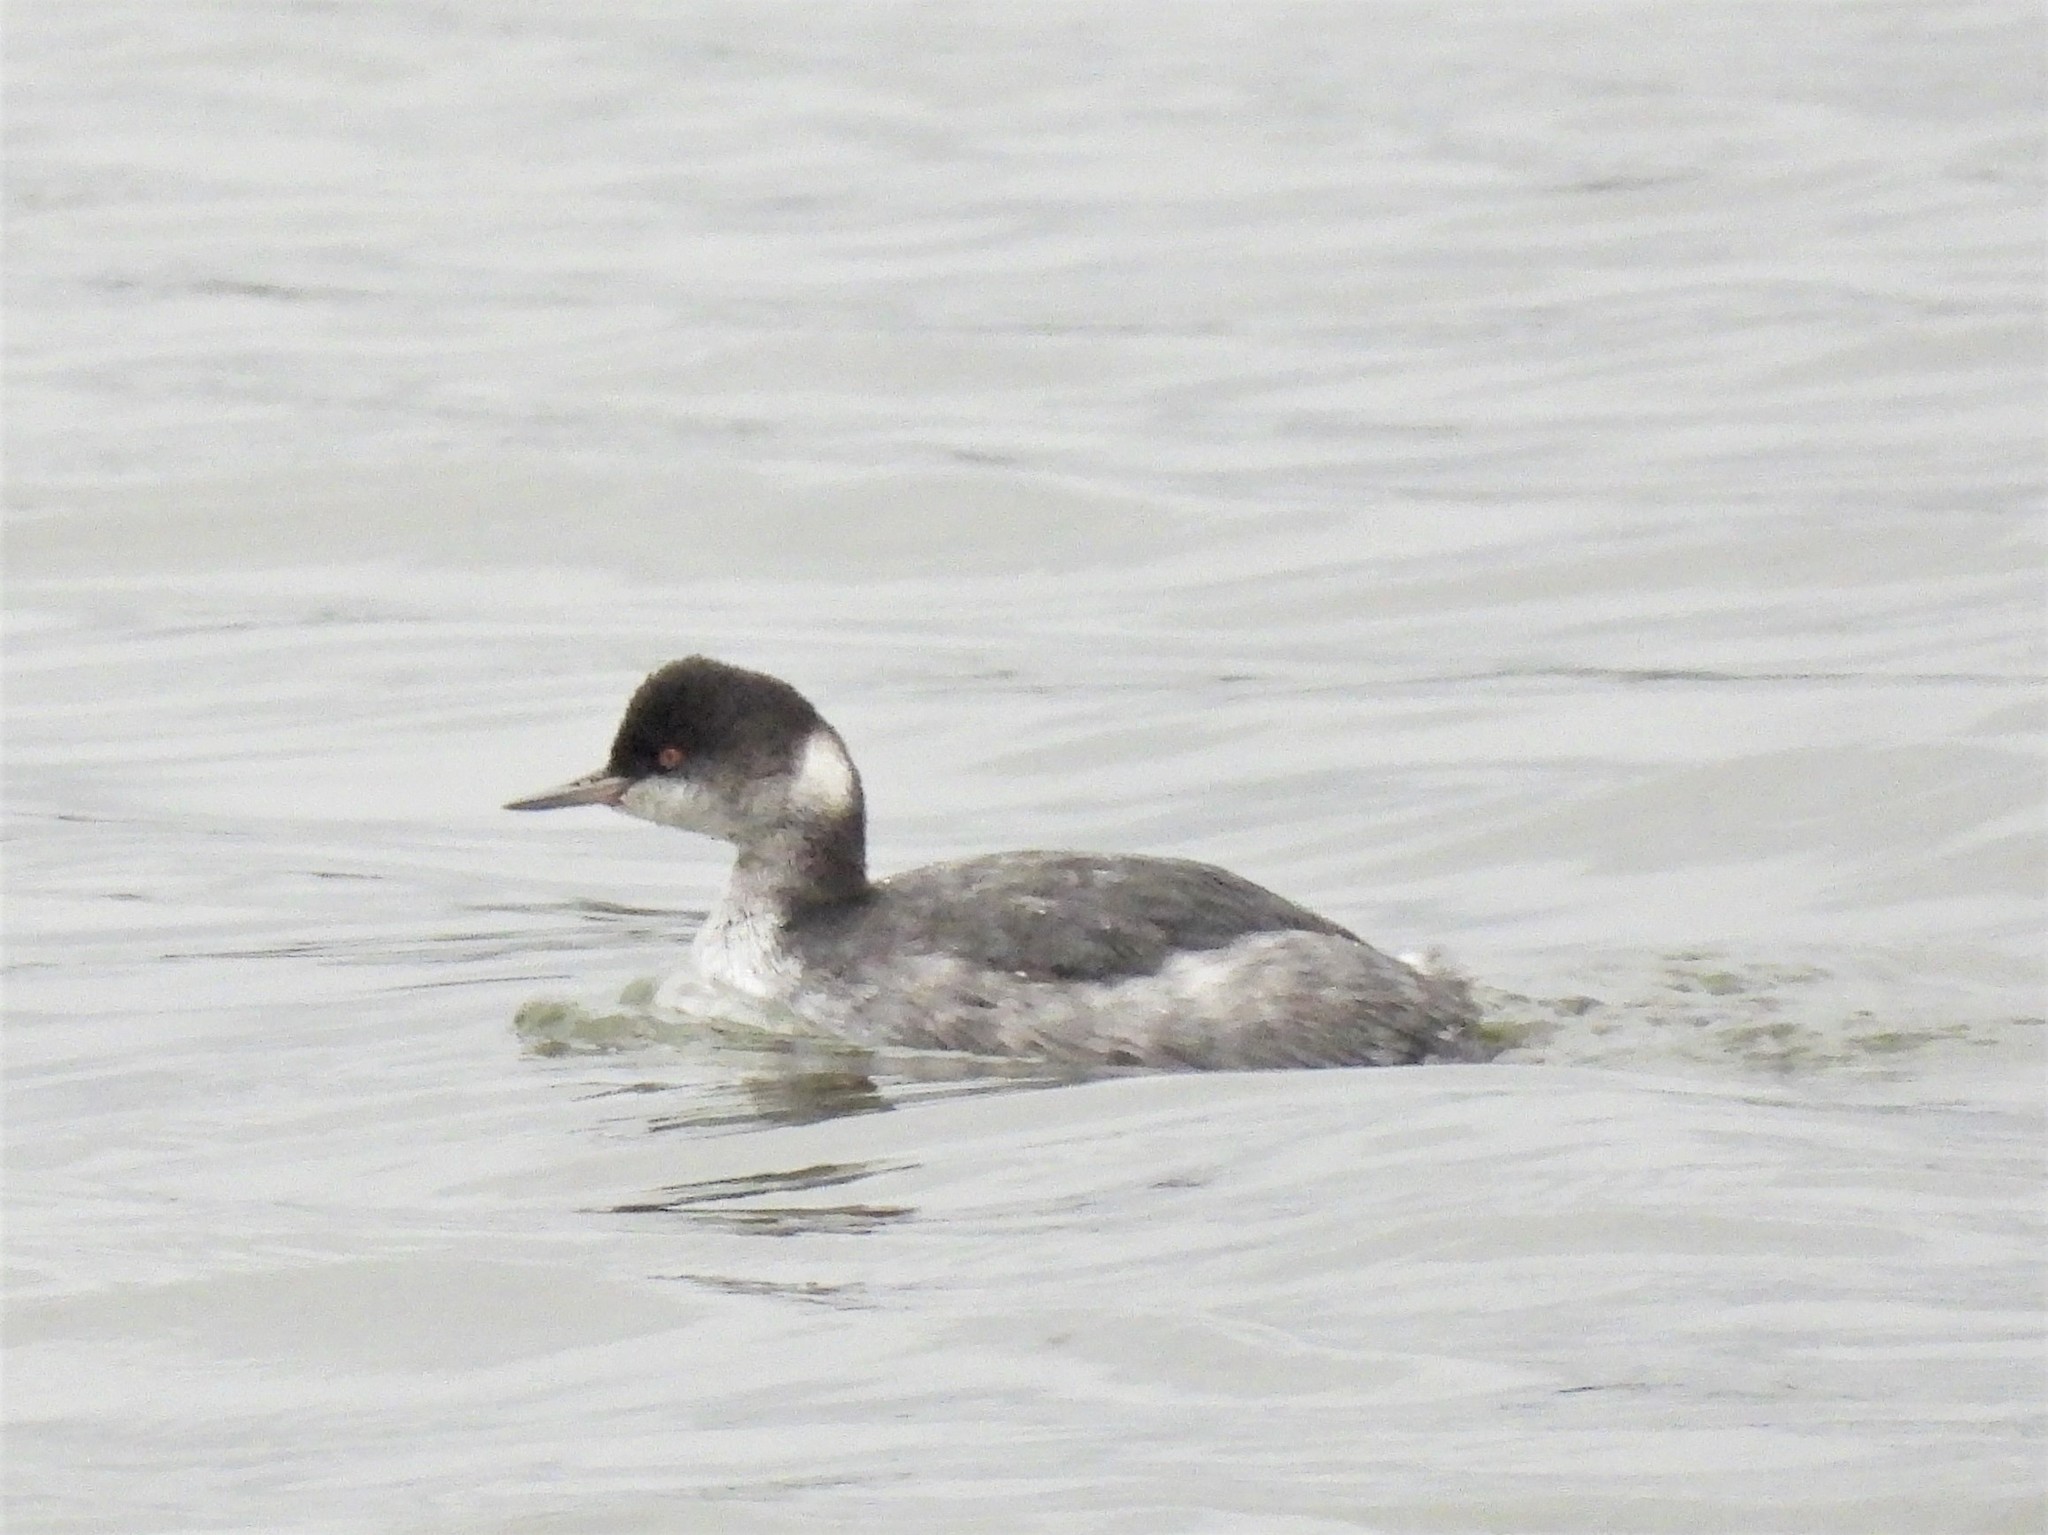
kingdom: Animalia
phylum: Chordata
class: Aves
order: Podicipediformes
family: Podicipedidae
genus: Podiceps
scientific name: Podiceps nigricollis
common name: Black-necked grebe
